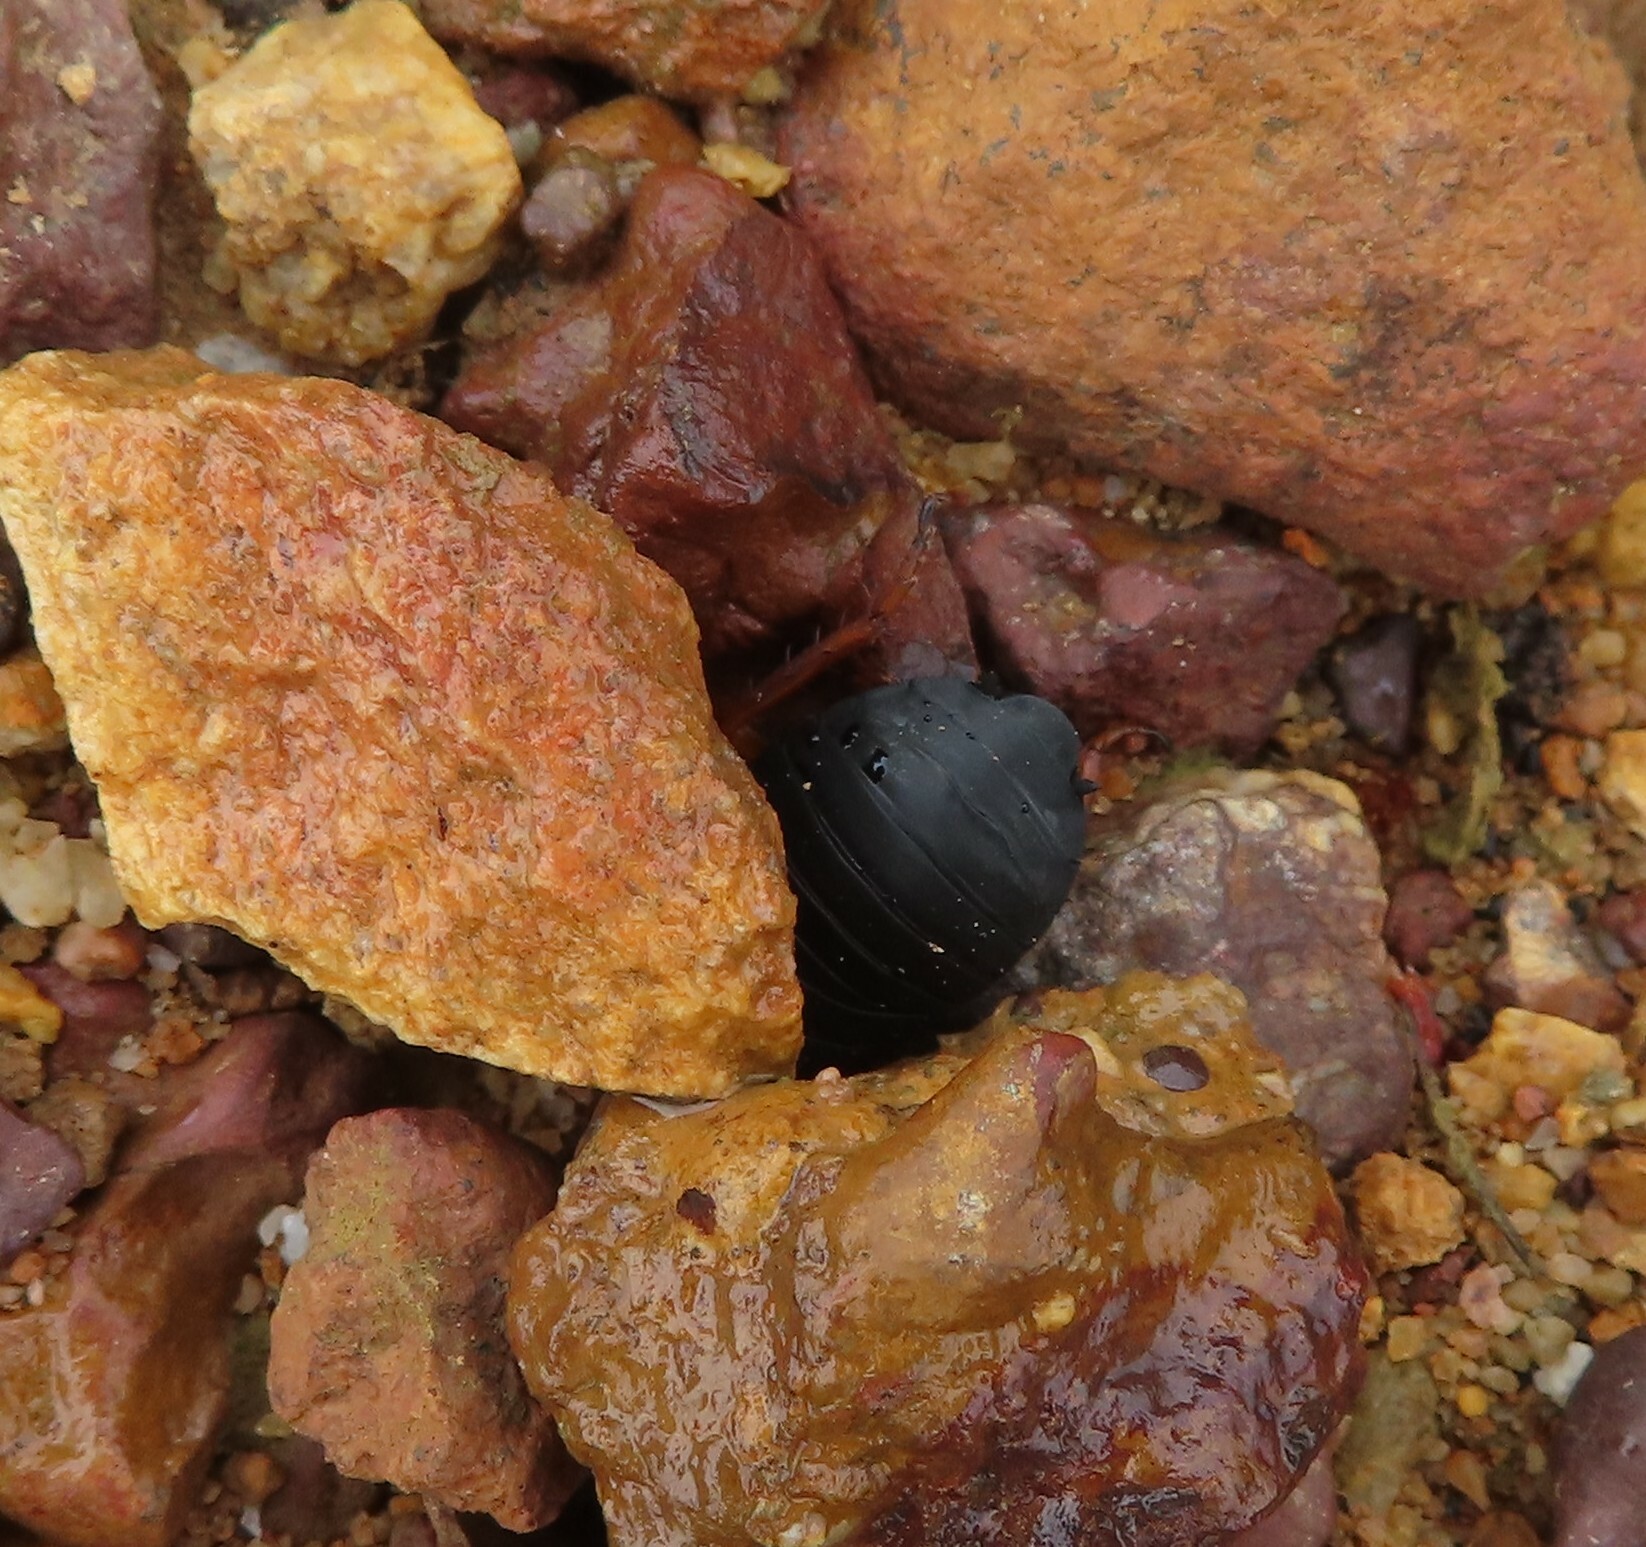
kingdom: Animalia
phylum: Arthropoda
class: Insecta
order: Blattodea
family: Blattidae
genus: Deropeltis
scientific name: Deropeltis erythrocephala
